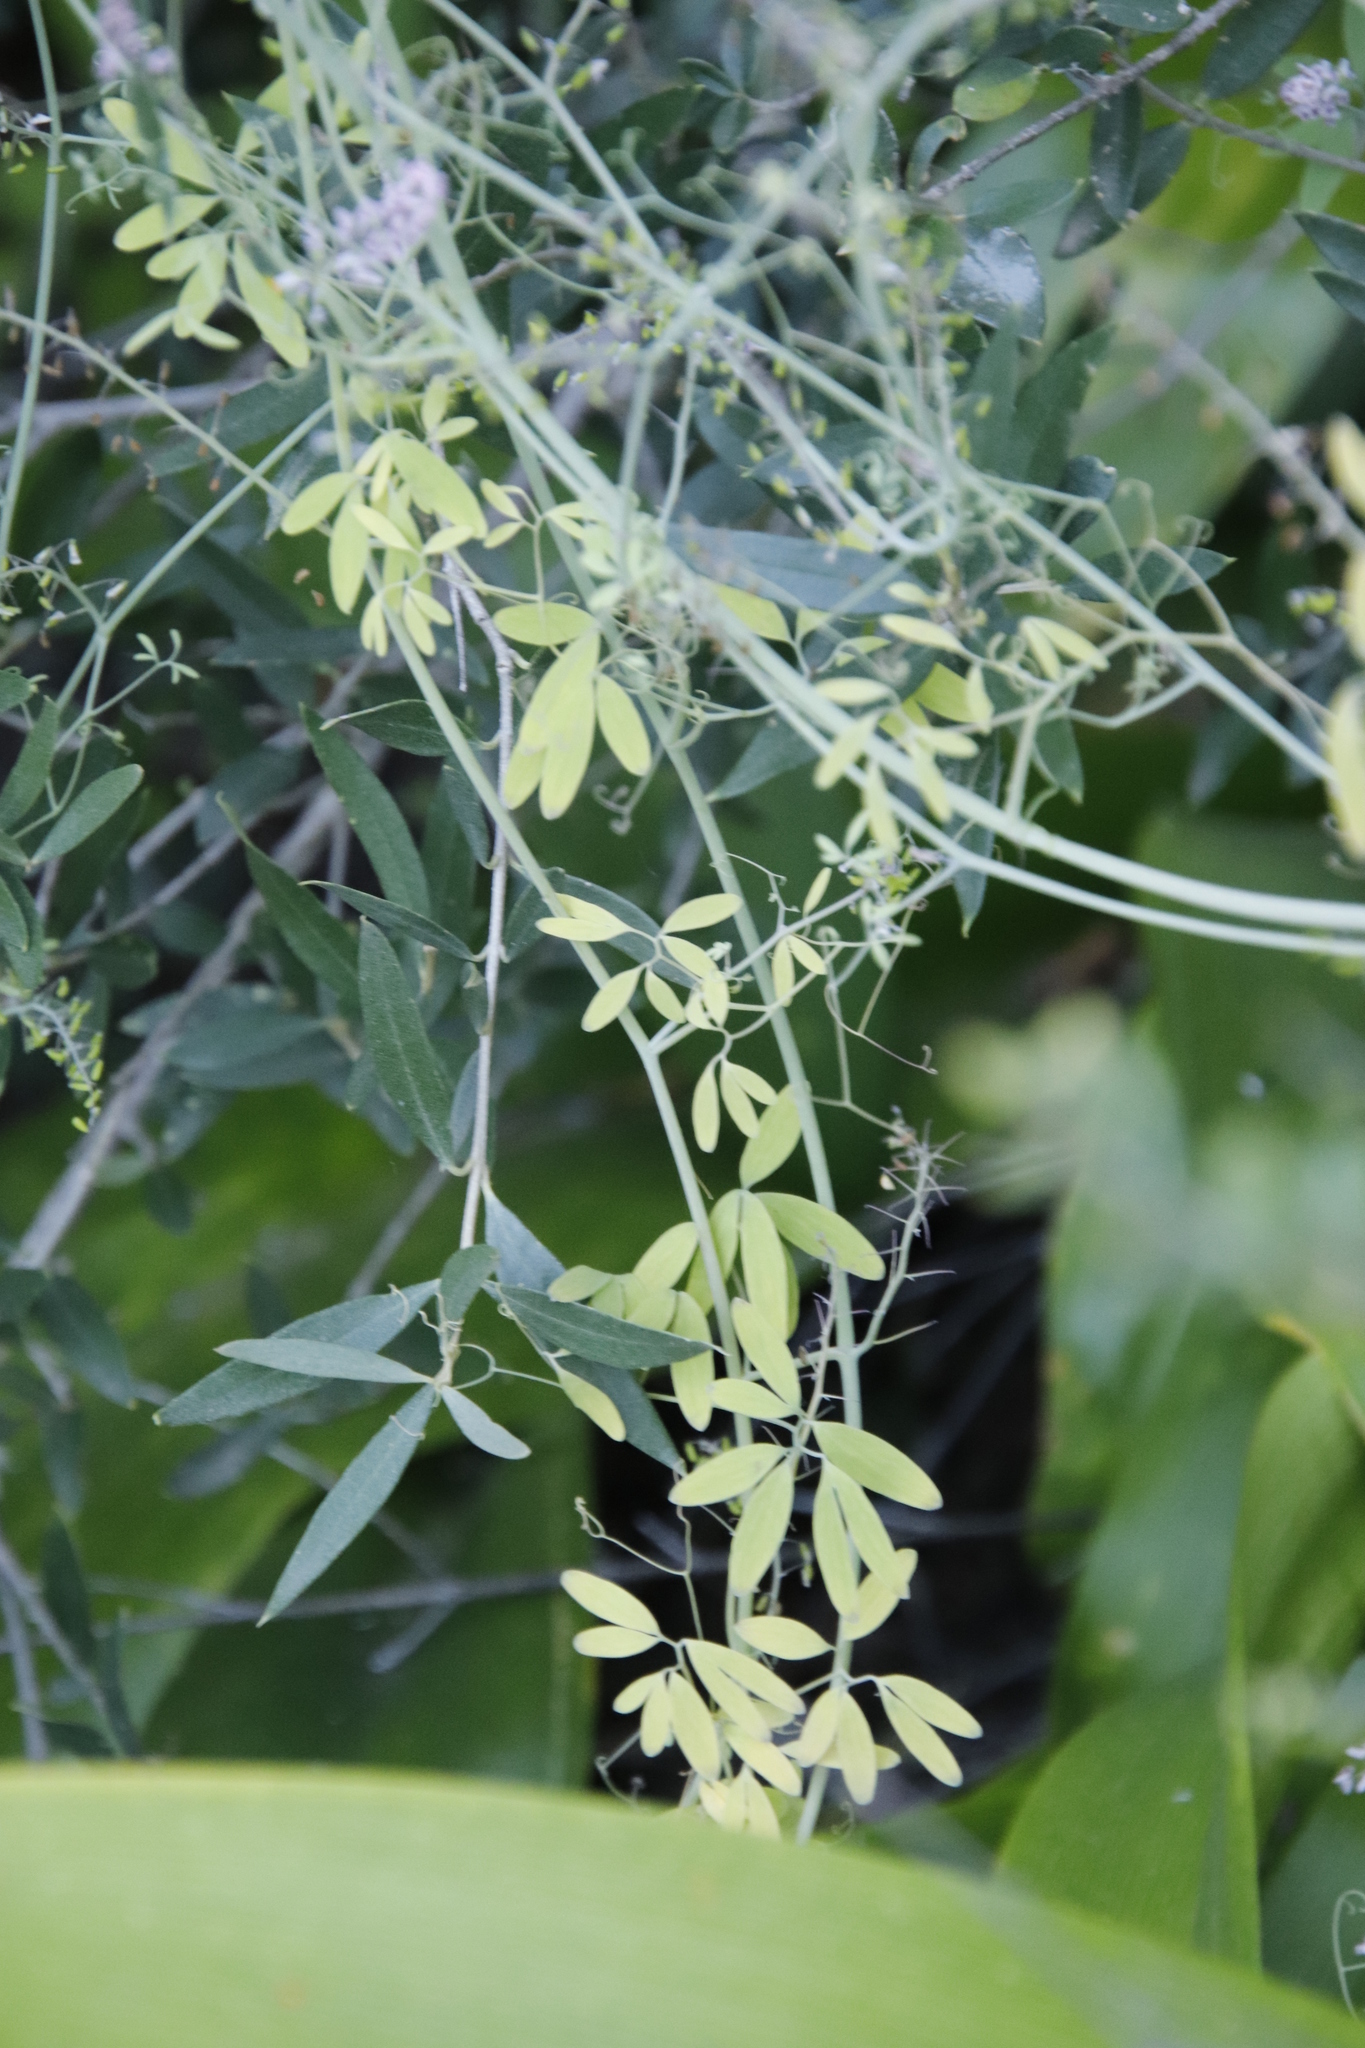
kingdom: Plantae
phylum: Tracheophyta
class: Magnoliopsida
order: Ranunculales
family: Papaveraceae
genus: Trigonocapnos
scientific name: Trigonocapnos lichtensteinii
